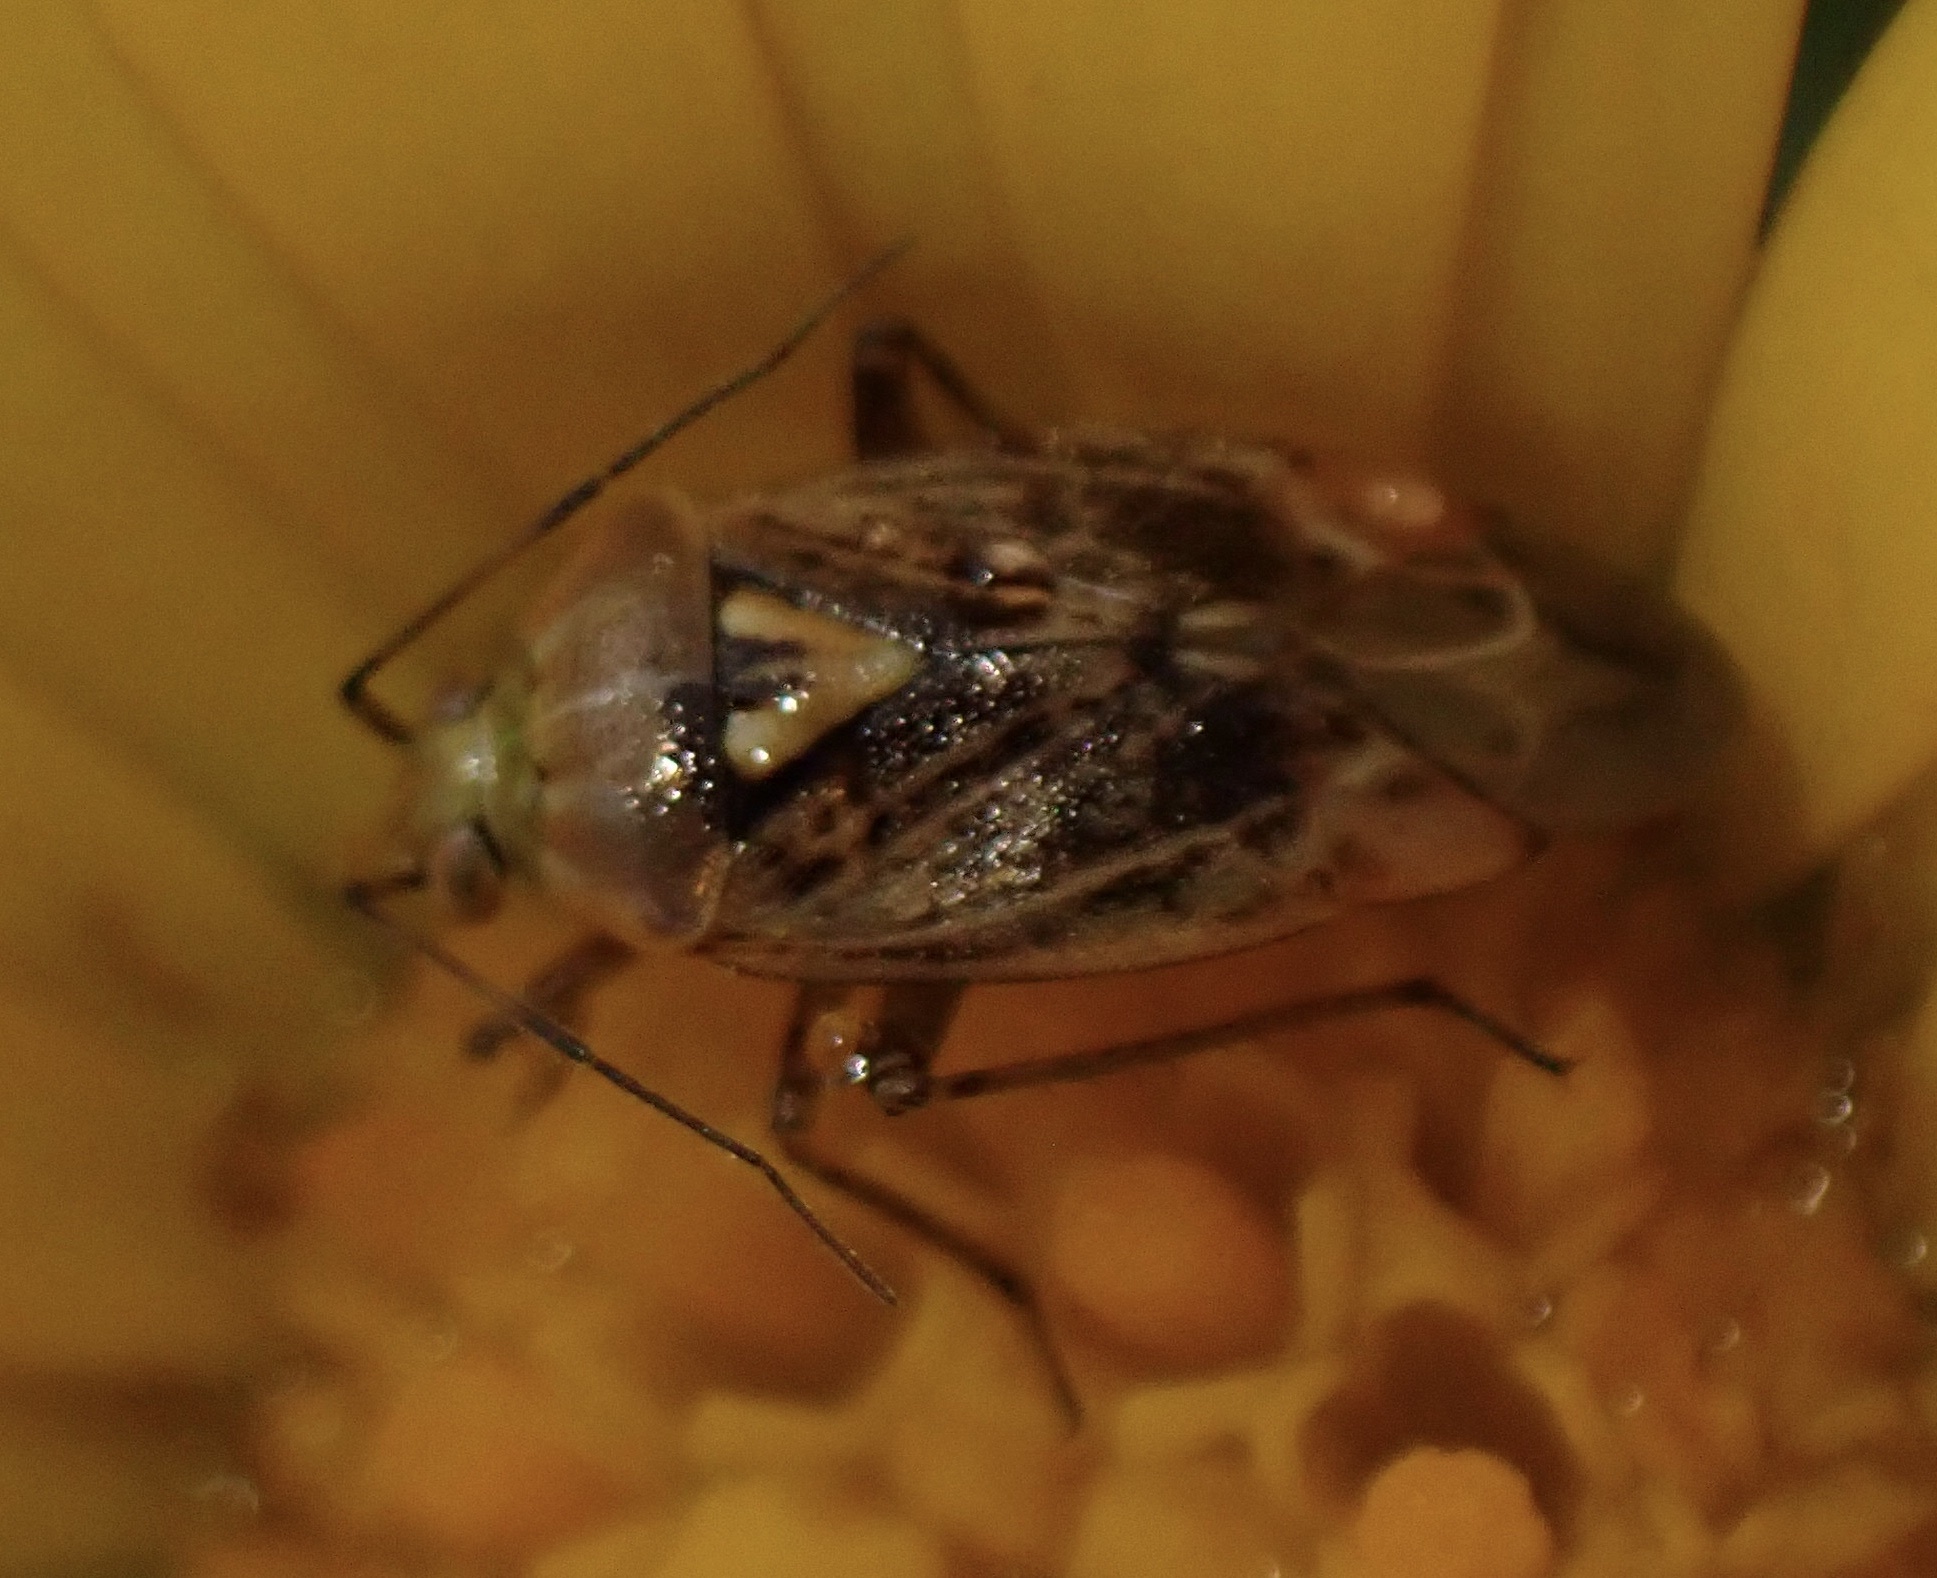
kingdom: Animalia
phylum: Arthropoda
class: Insecta
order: Hemiptera
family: Miridae
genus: Lygus
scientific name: Lygus rugulipennis
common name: European tarnished plant bug
